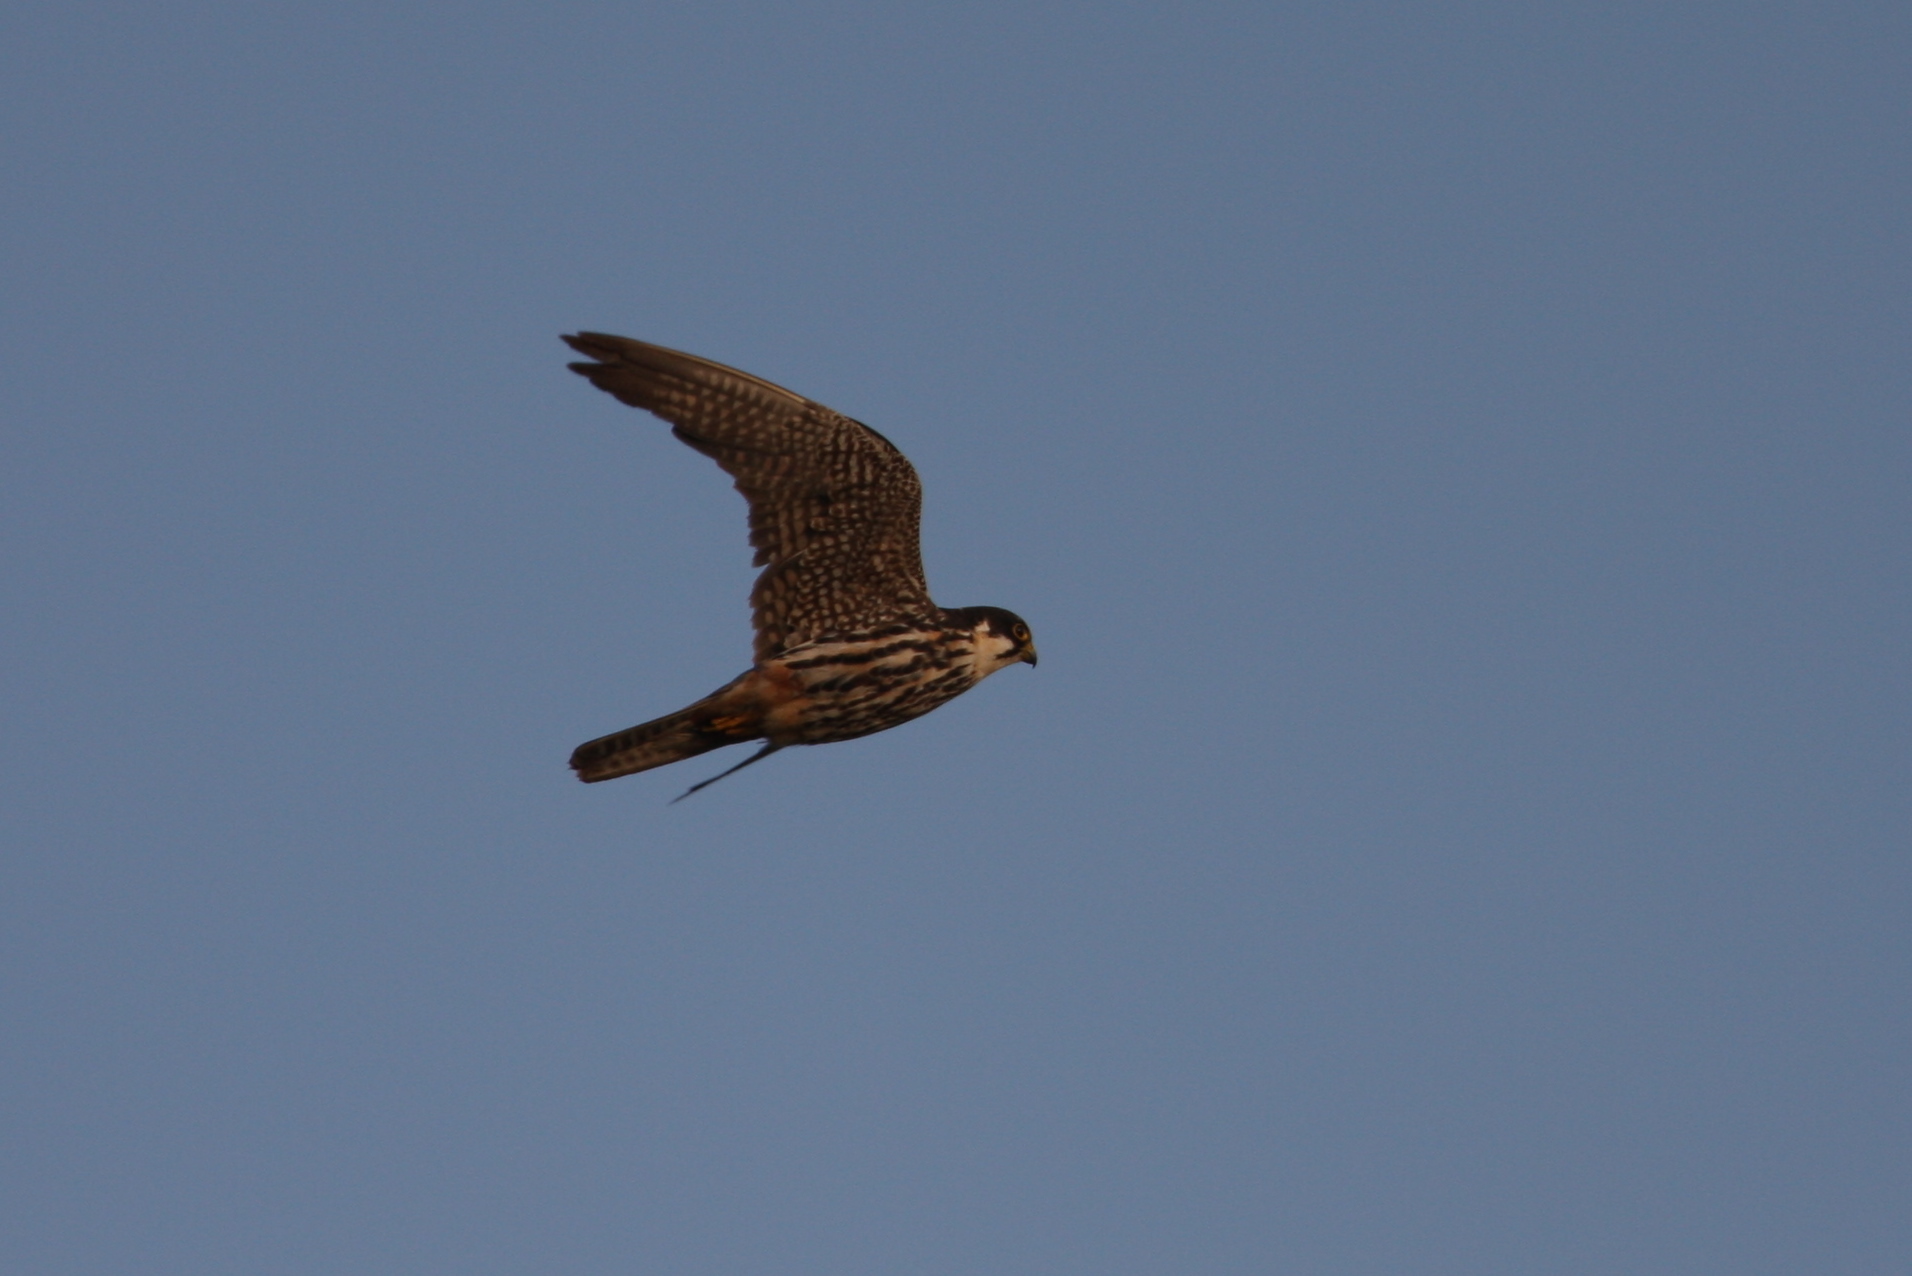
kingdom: Animalia
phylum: Chordata
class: Aves
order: Falconiformes
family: Falconidae
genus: Falco
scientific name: Falco subbuteo
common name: Eurasian hobby
